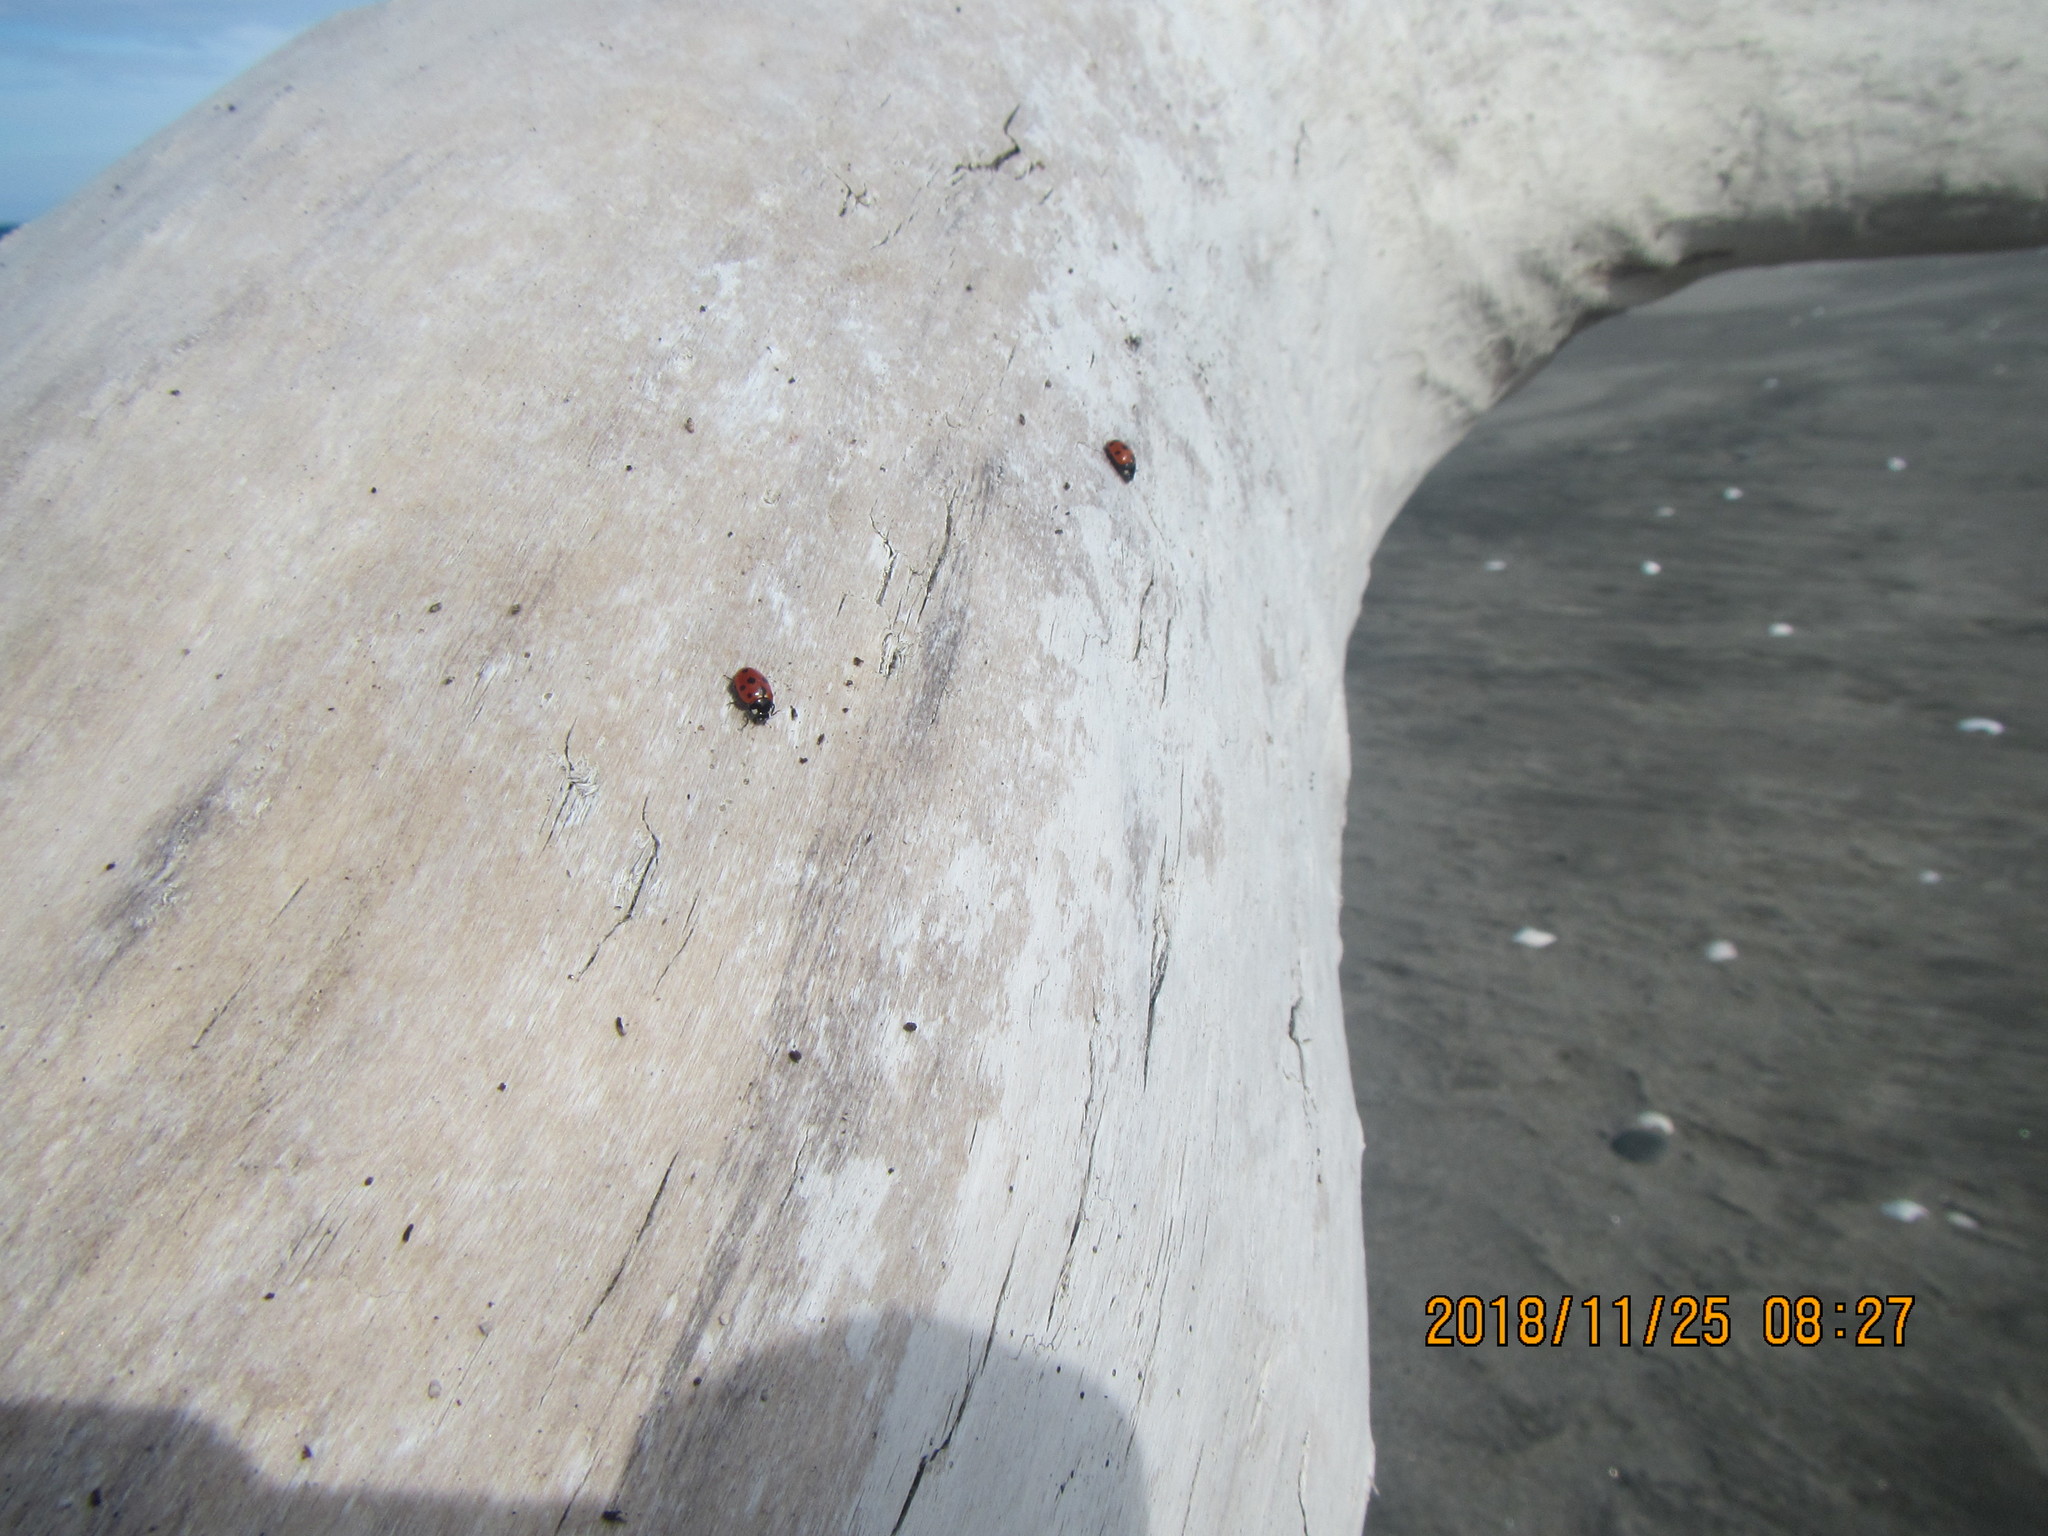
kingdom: Animalia
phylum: Arthropoda
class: Insecta
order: Coleoptera
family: Coccinellidae
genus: Coccinella
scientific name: Coccinella undecimpunctata
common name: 11-spot ladybird
